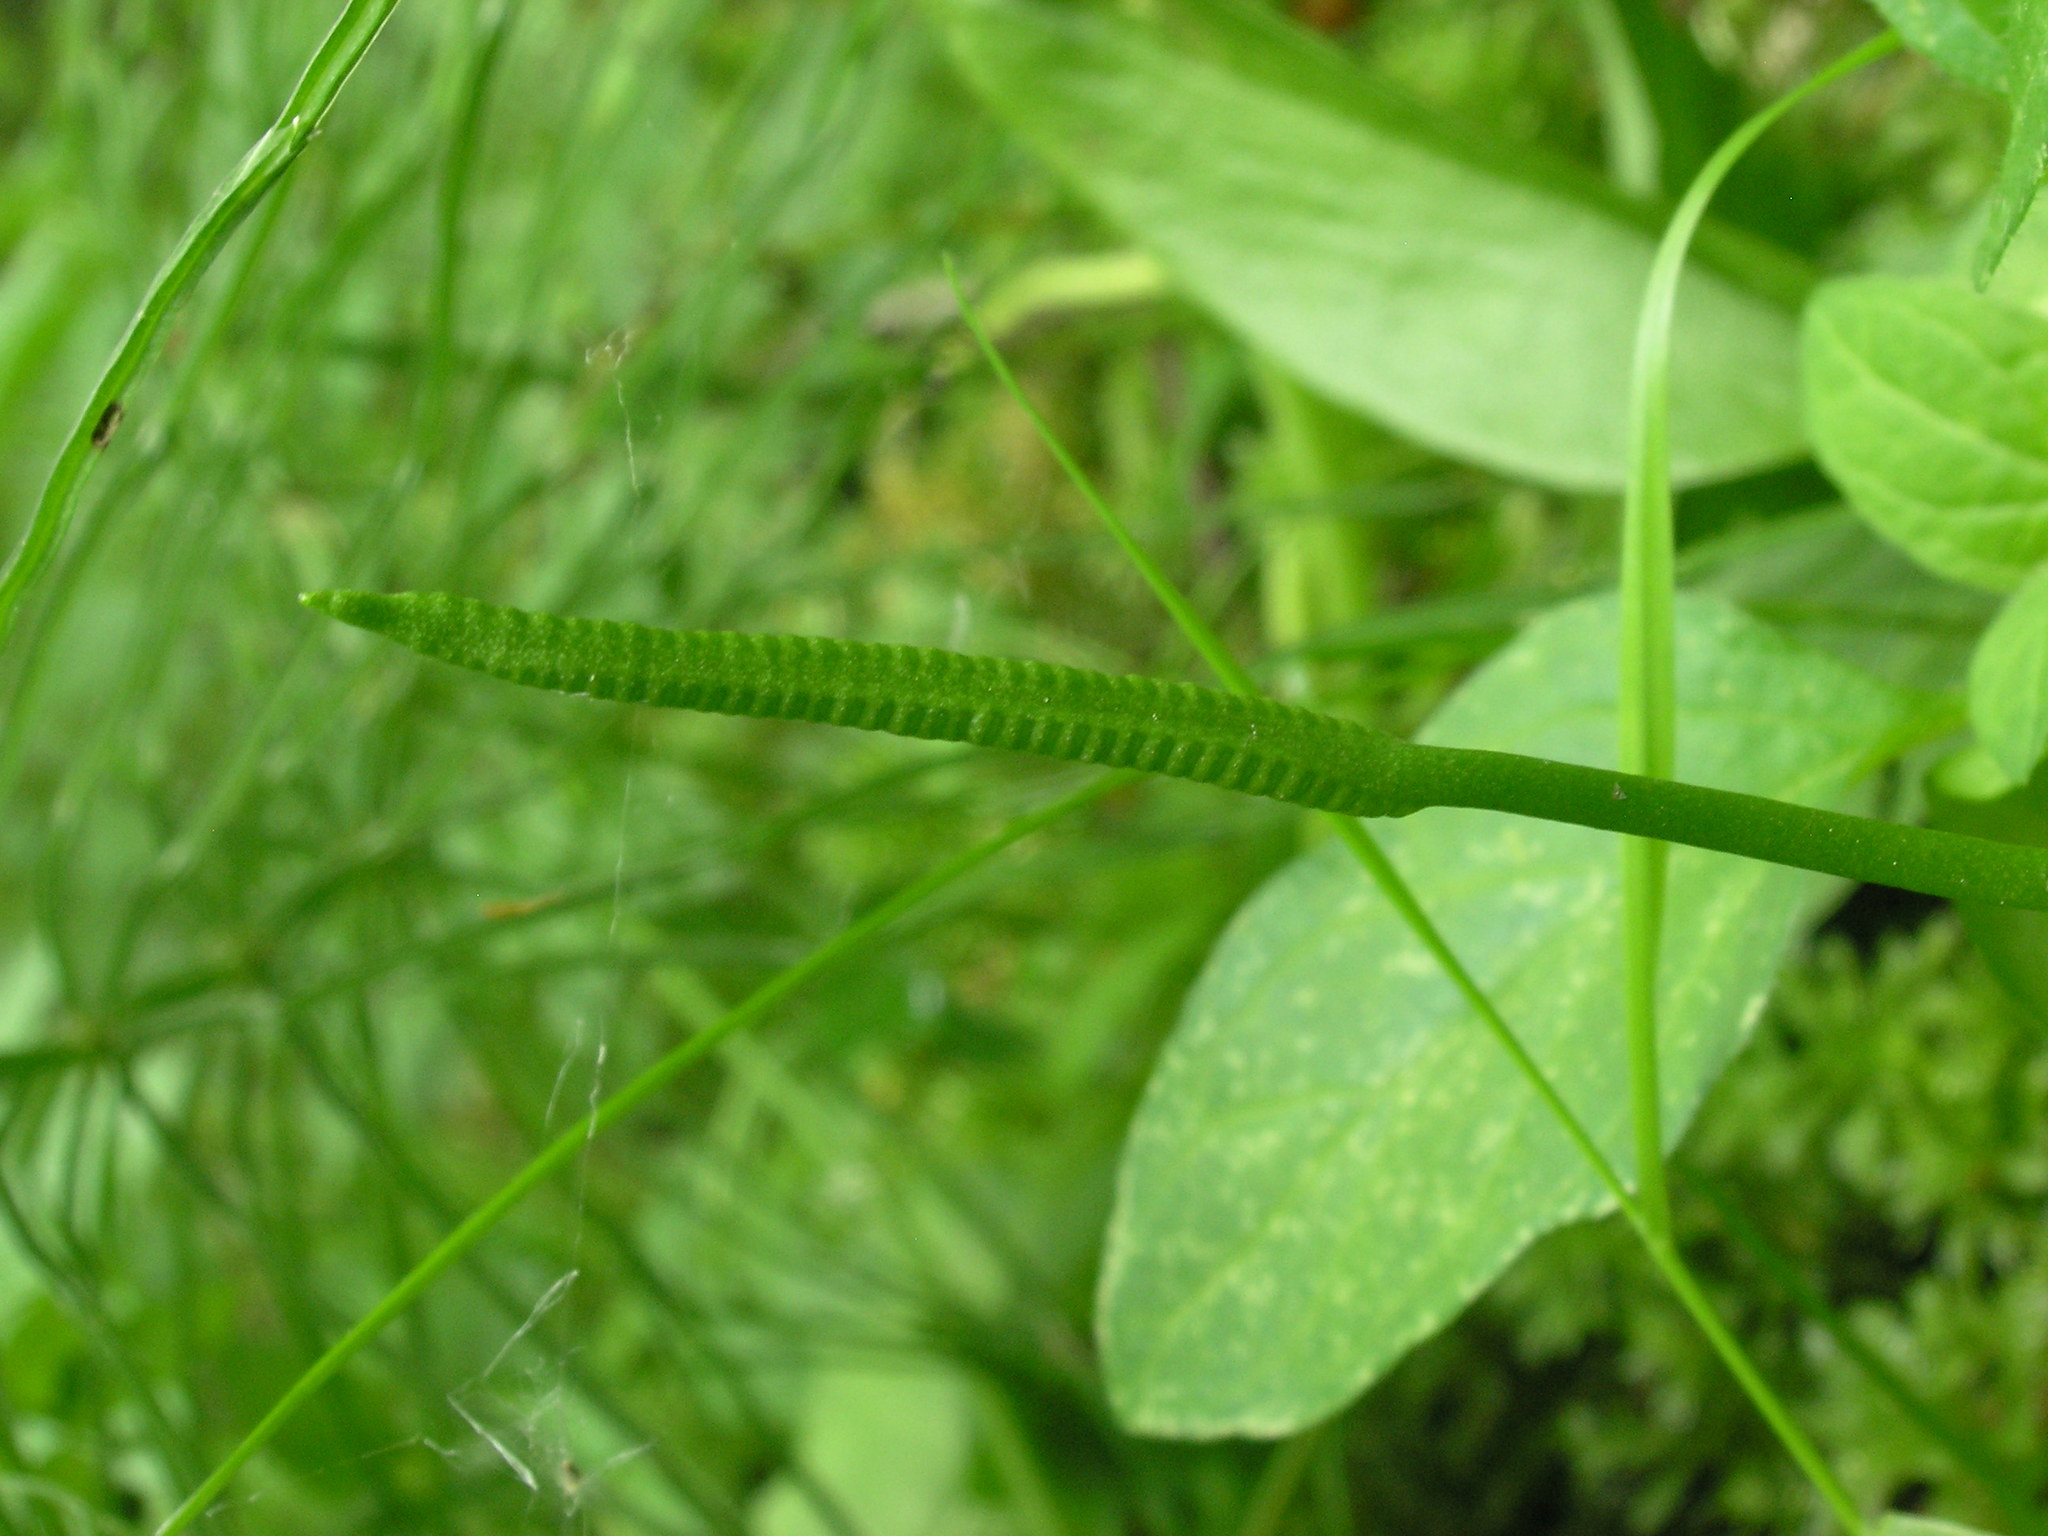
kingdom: Plantae
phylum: Tracheophyta
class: Polypodiopsida
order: Ophioglossales
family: Ophioglossaceae
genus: Ophioglossum
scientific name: Ophioglossum vulgatum
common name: Adder's-tongue
